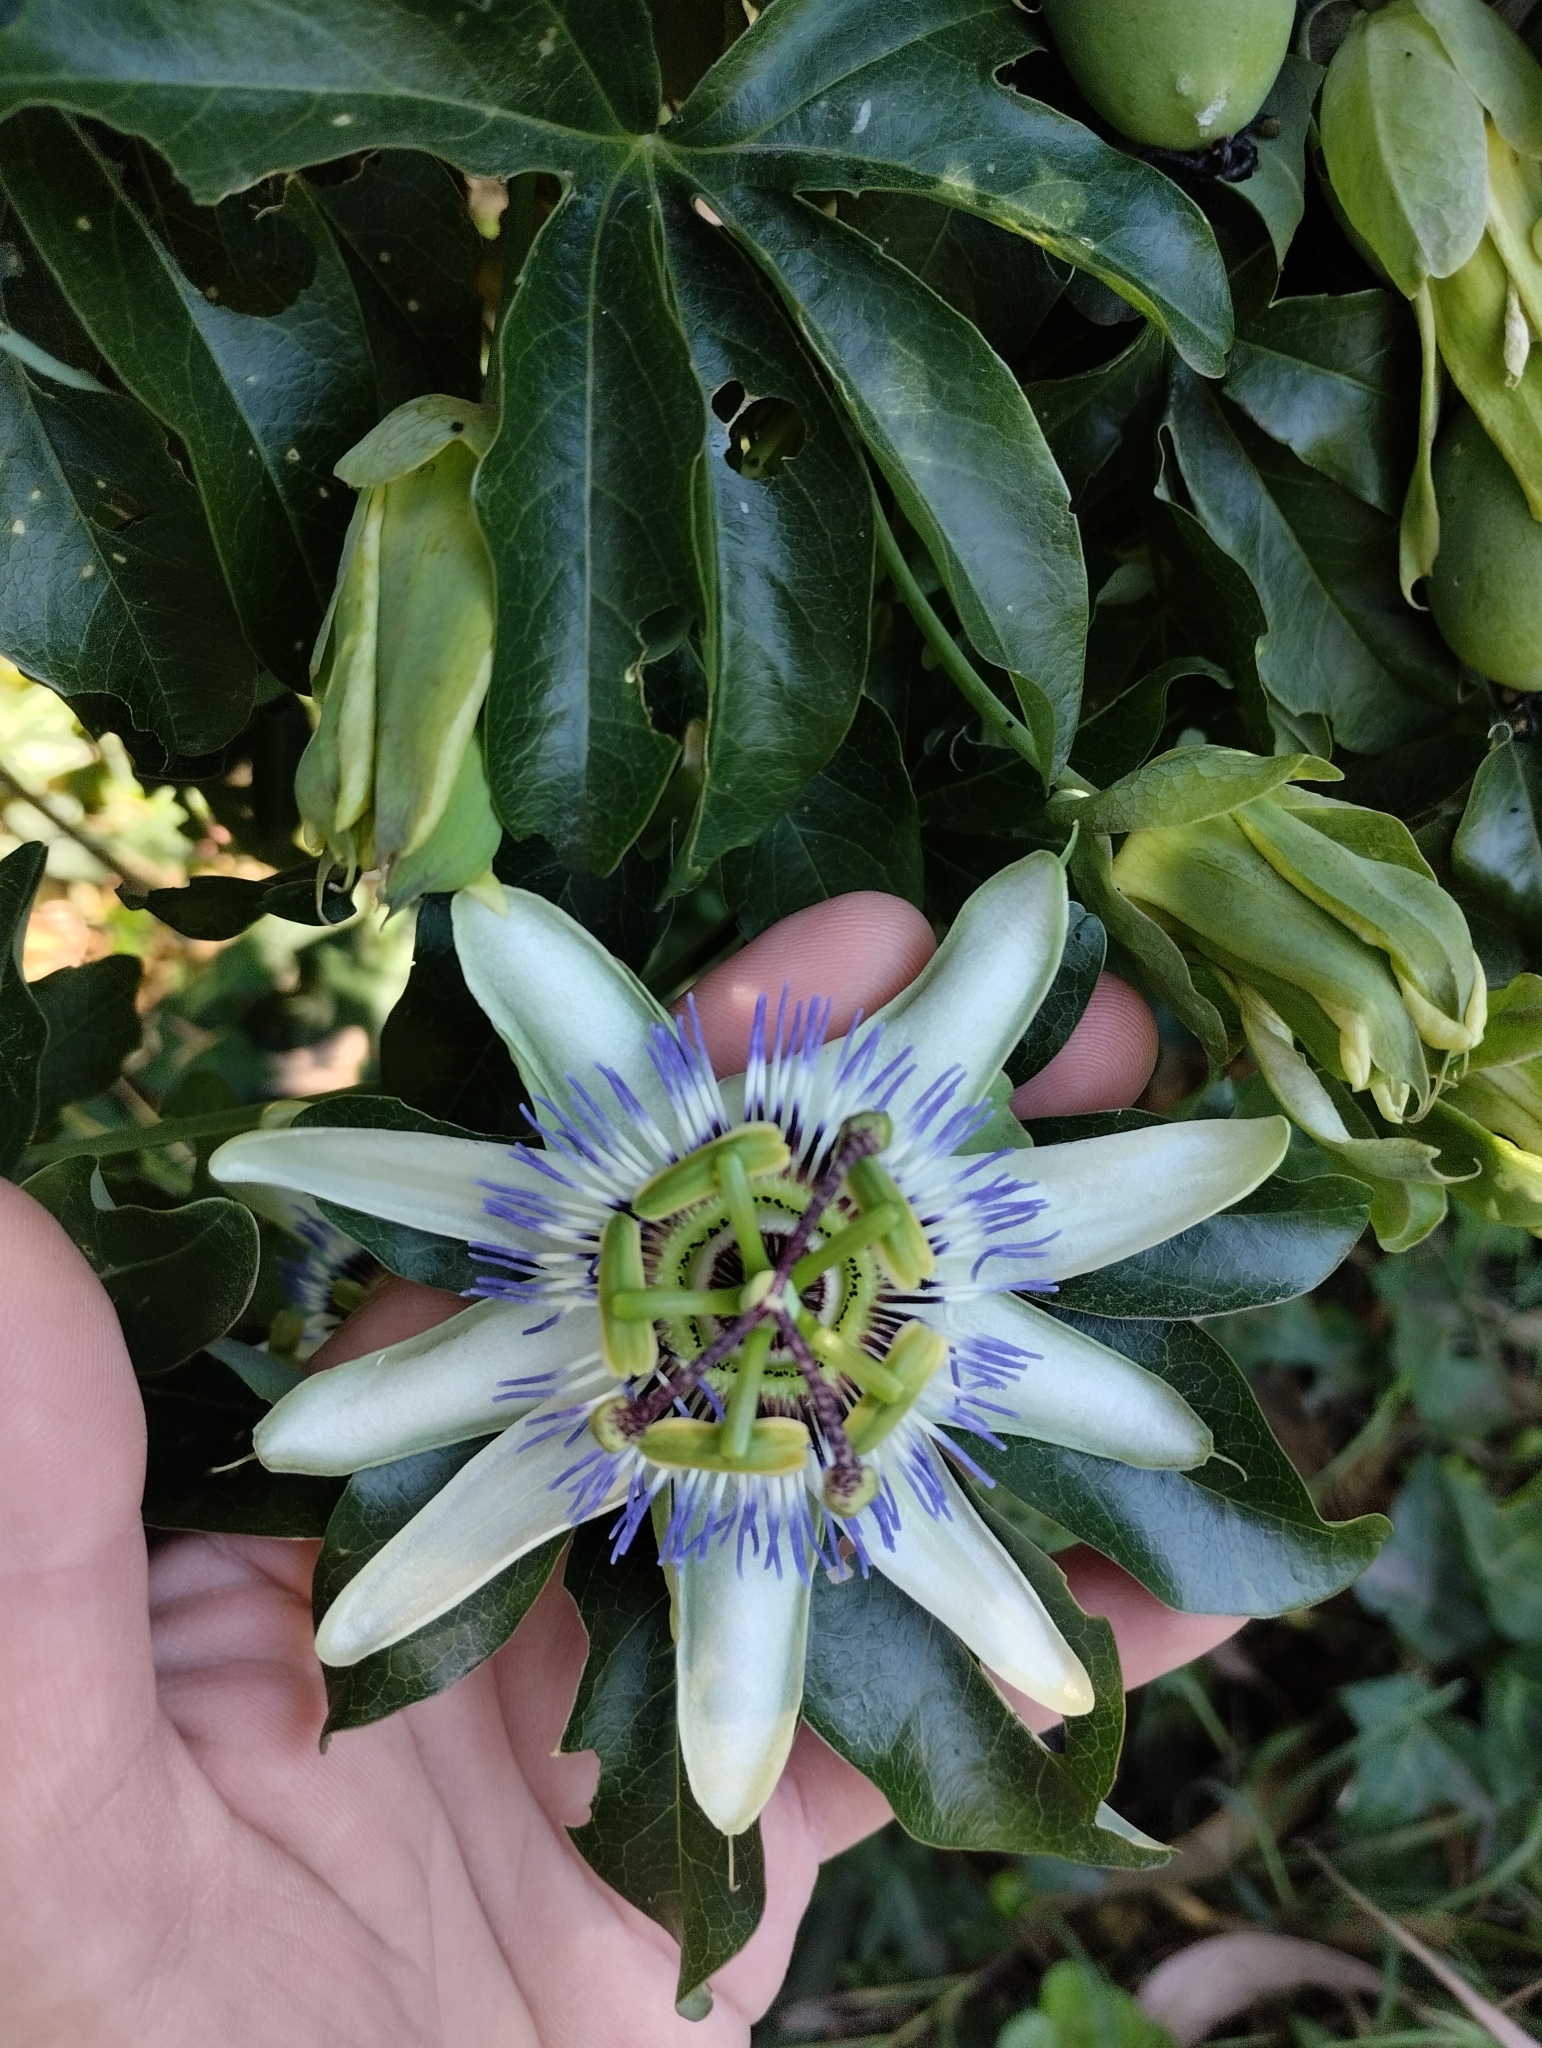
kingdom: Plantae
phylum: Tracheophyta
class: Magnoliopsida
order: Malpighiales
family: Passifloraceae
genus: Passiflora
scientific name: Passiflora caerulea
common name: Blue passionflower
